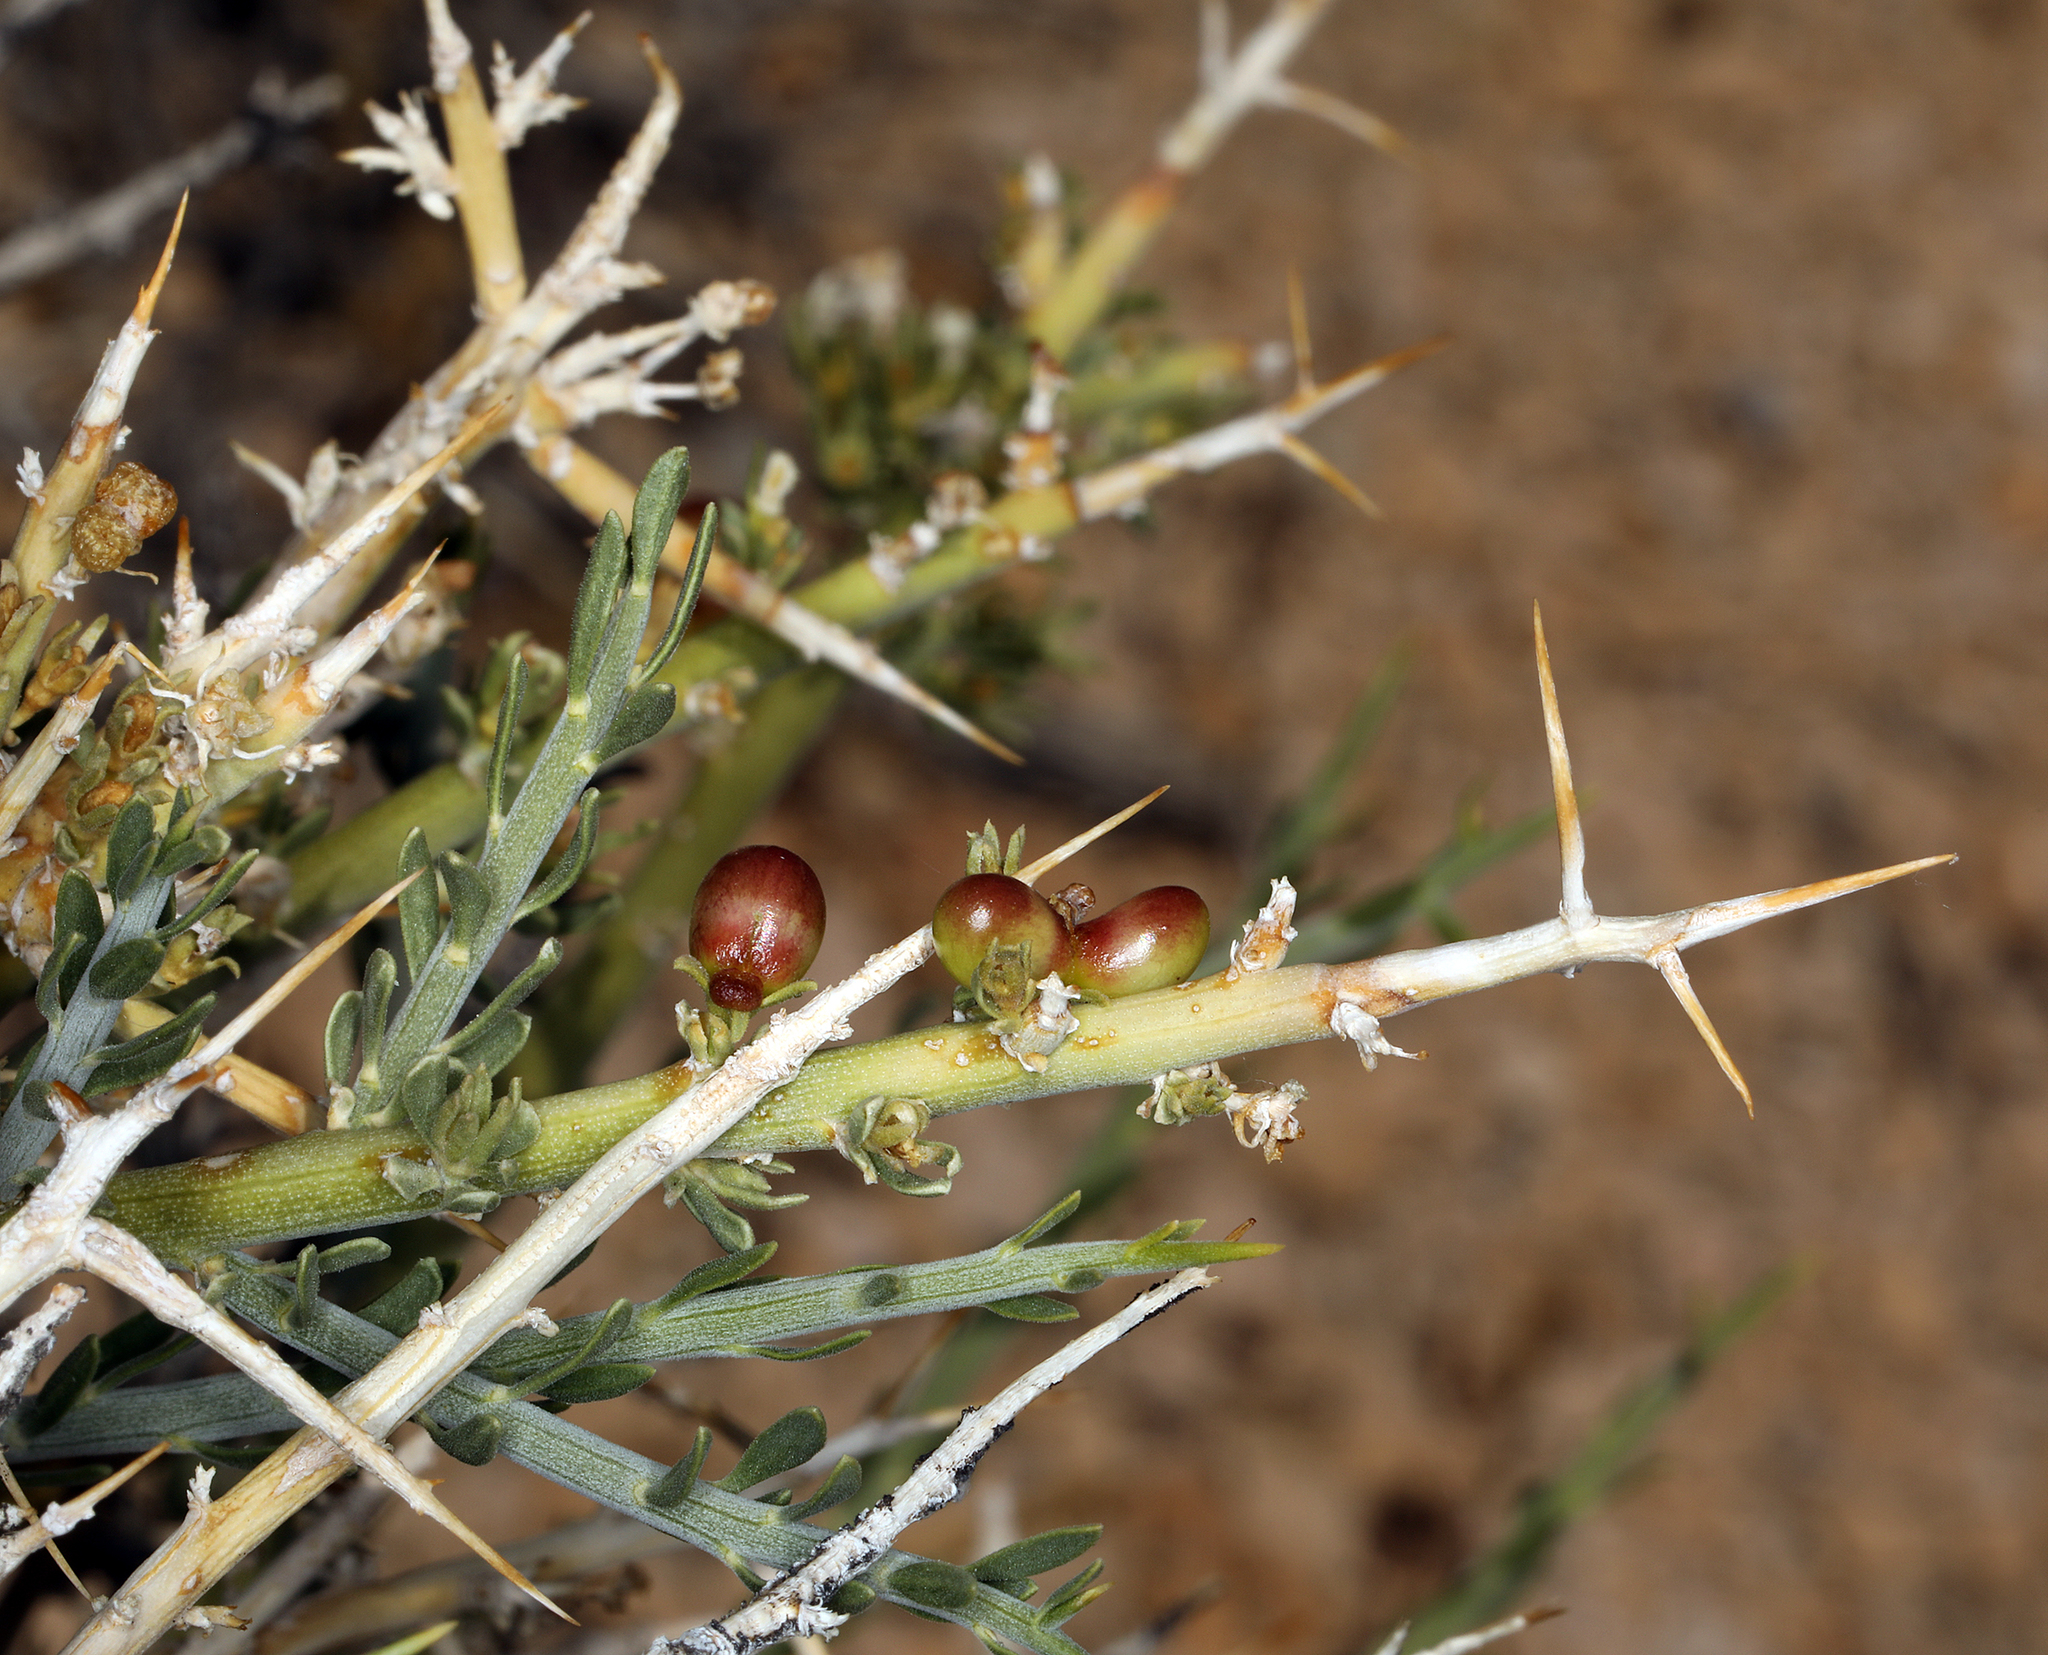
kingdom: Plantae
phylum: Tracheophyta
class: Magnoliopsida
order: Lamiales
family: Oleaceae
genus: Menodora
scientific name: Menodora spinescens
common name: Spiny menodora
